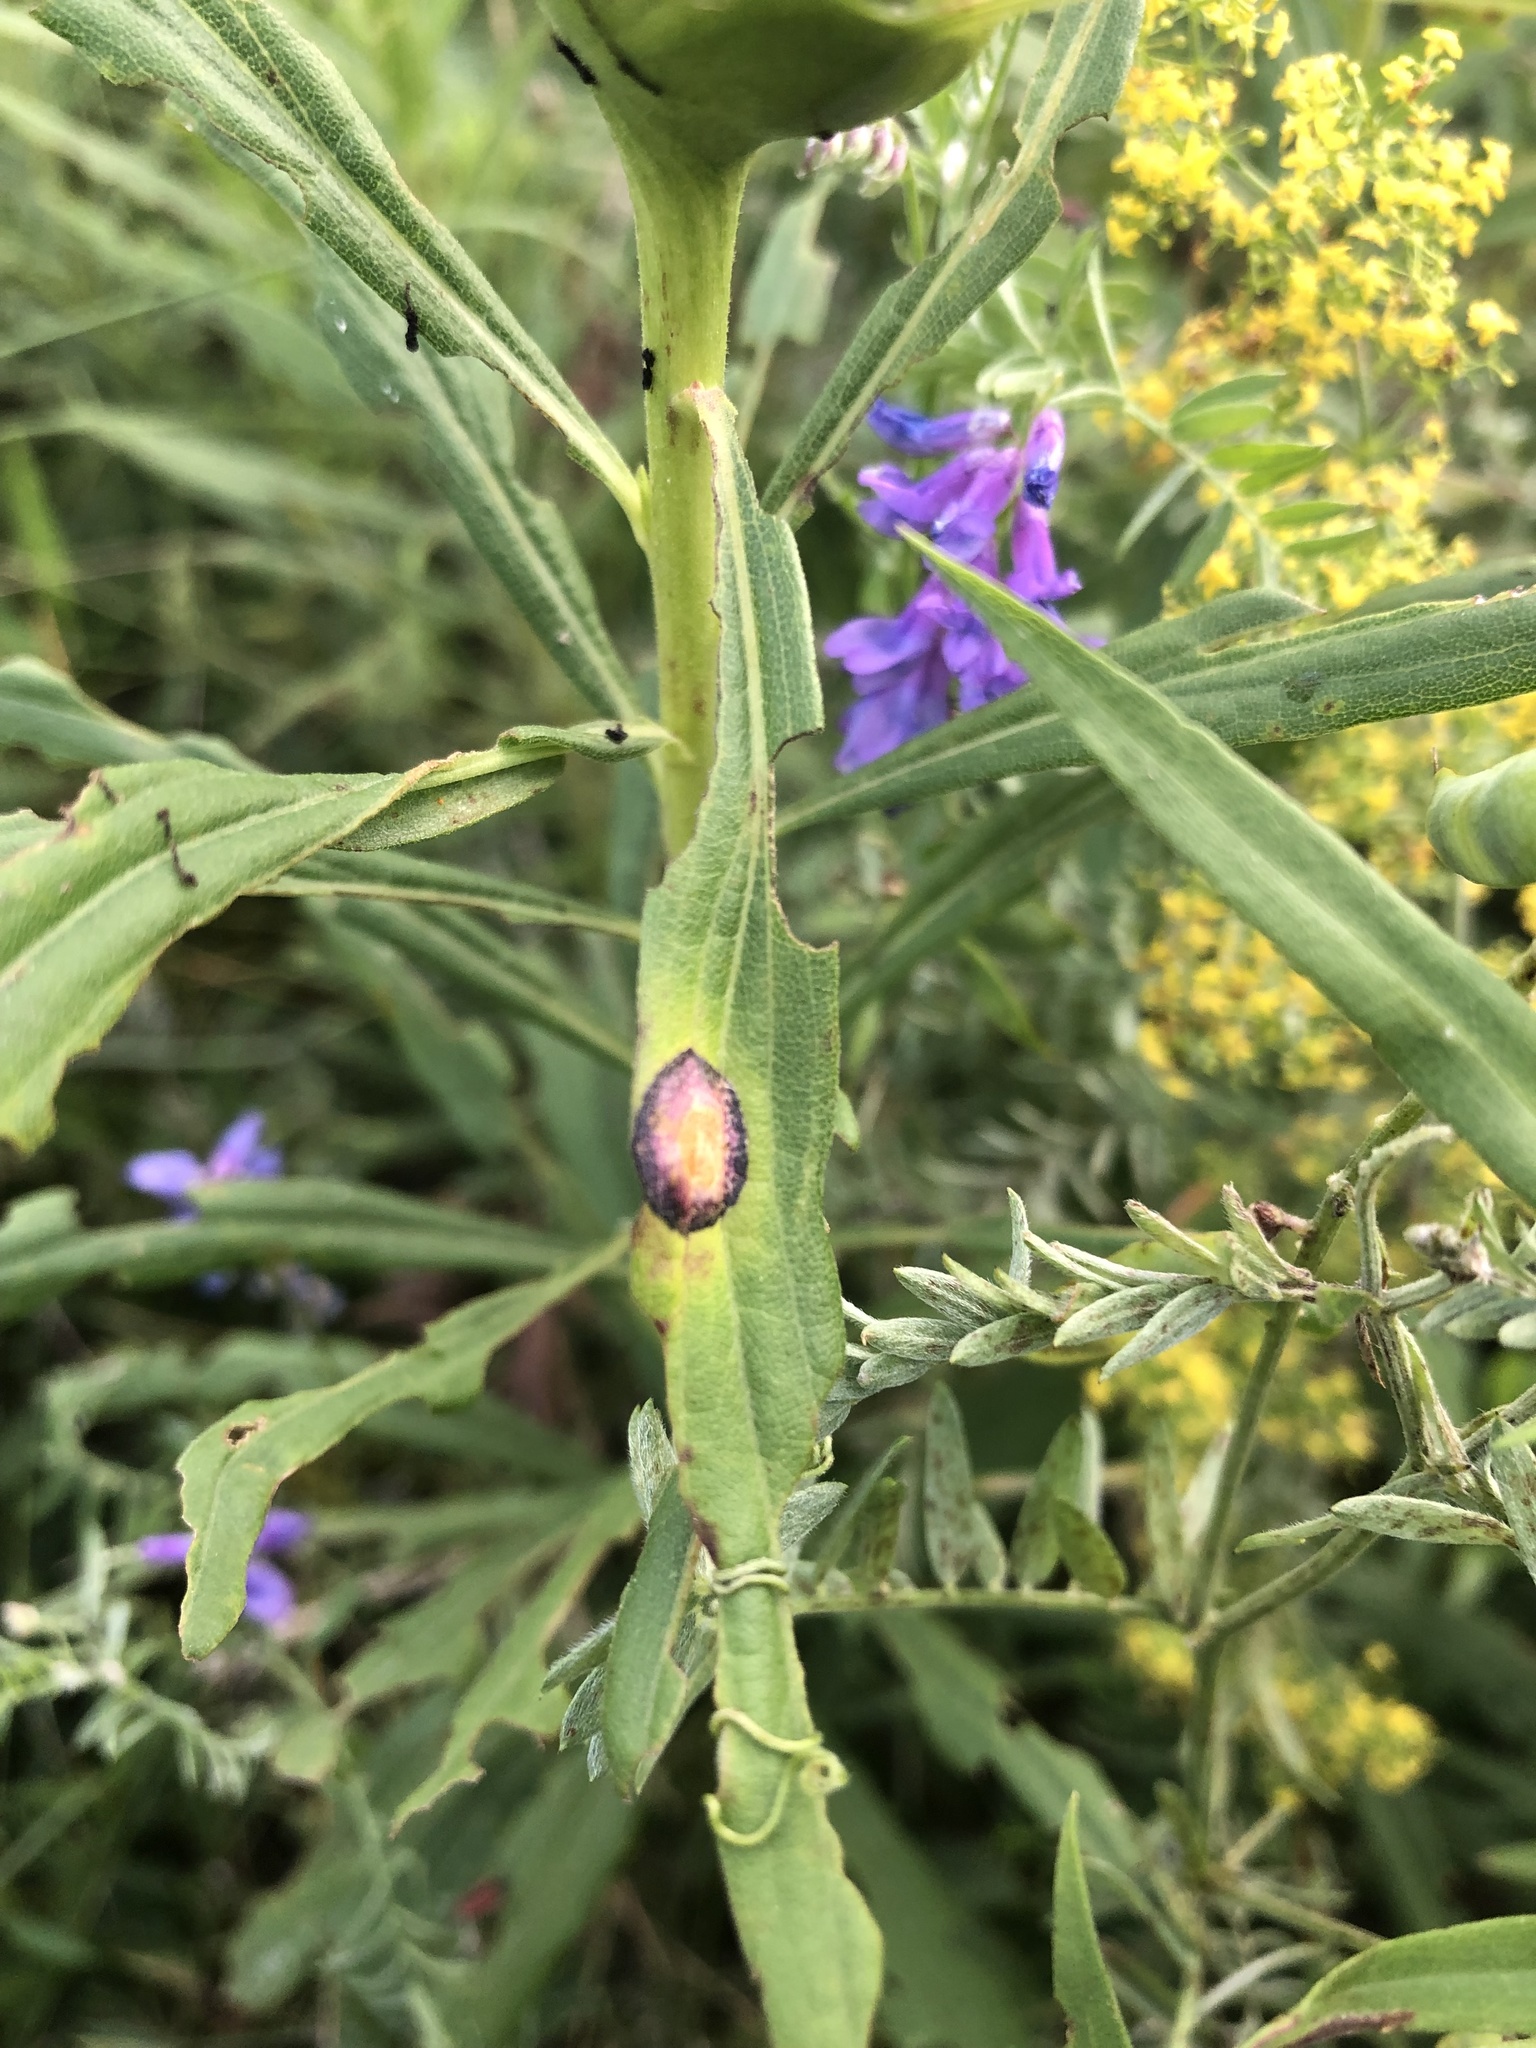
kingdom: Animalia
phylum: Arthropoda
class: Insecta
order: Diptera
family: Cecidomyiidae
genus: Asteromyia
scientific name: Asteromyia carbonifera
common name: Carbonifera goldenrod gall midge
